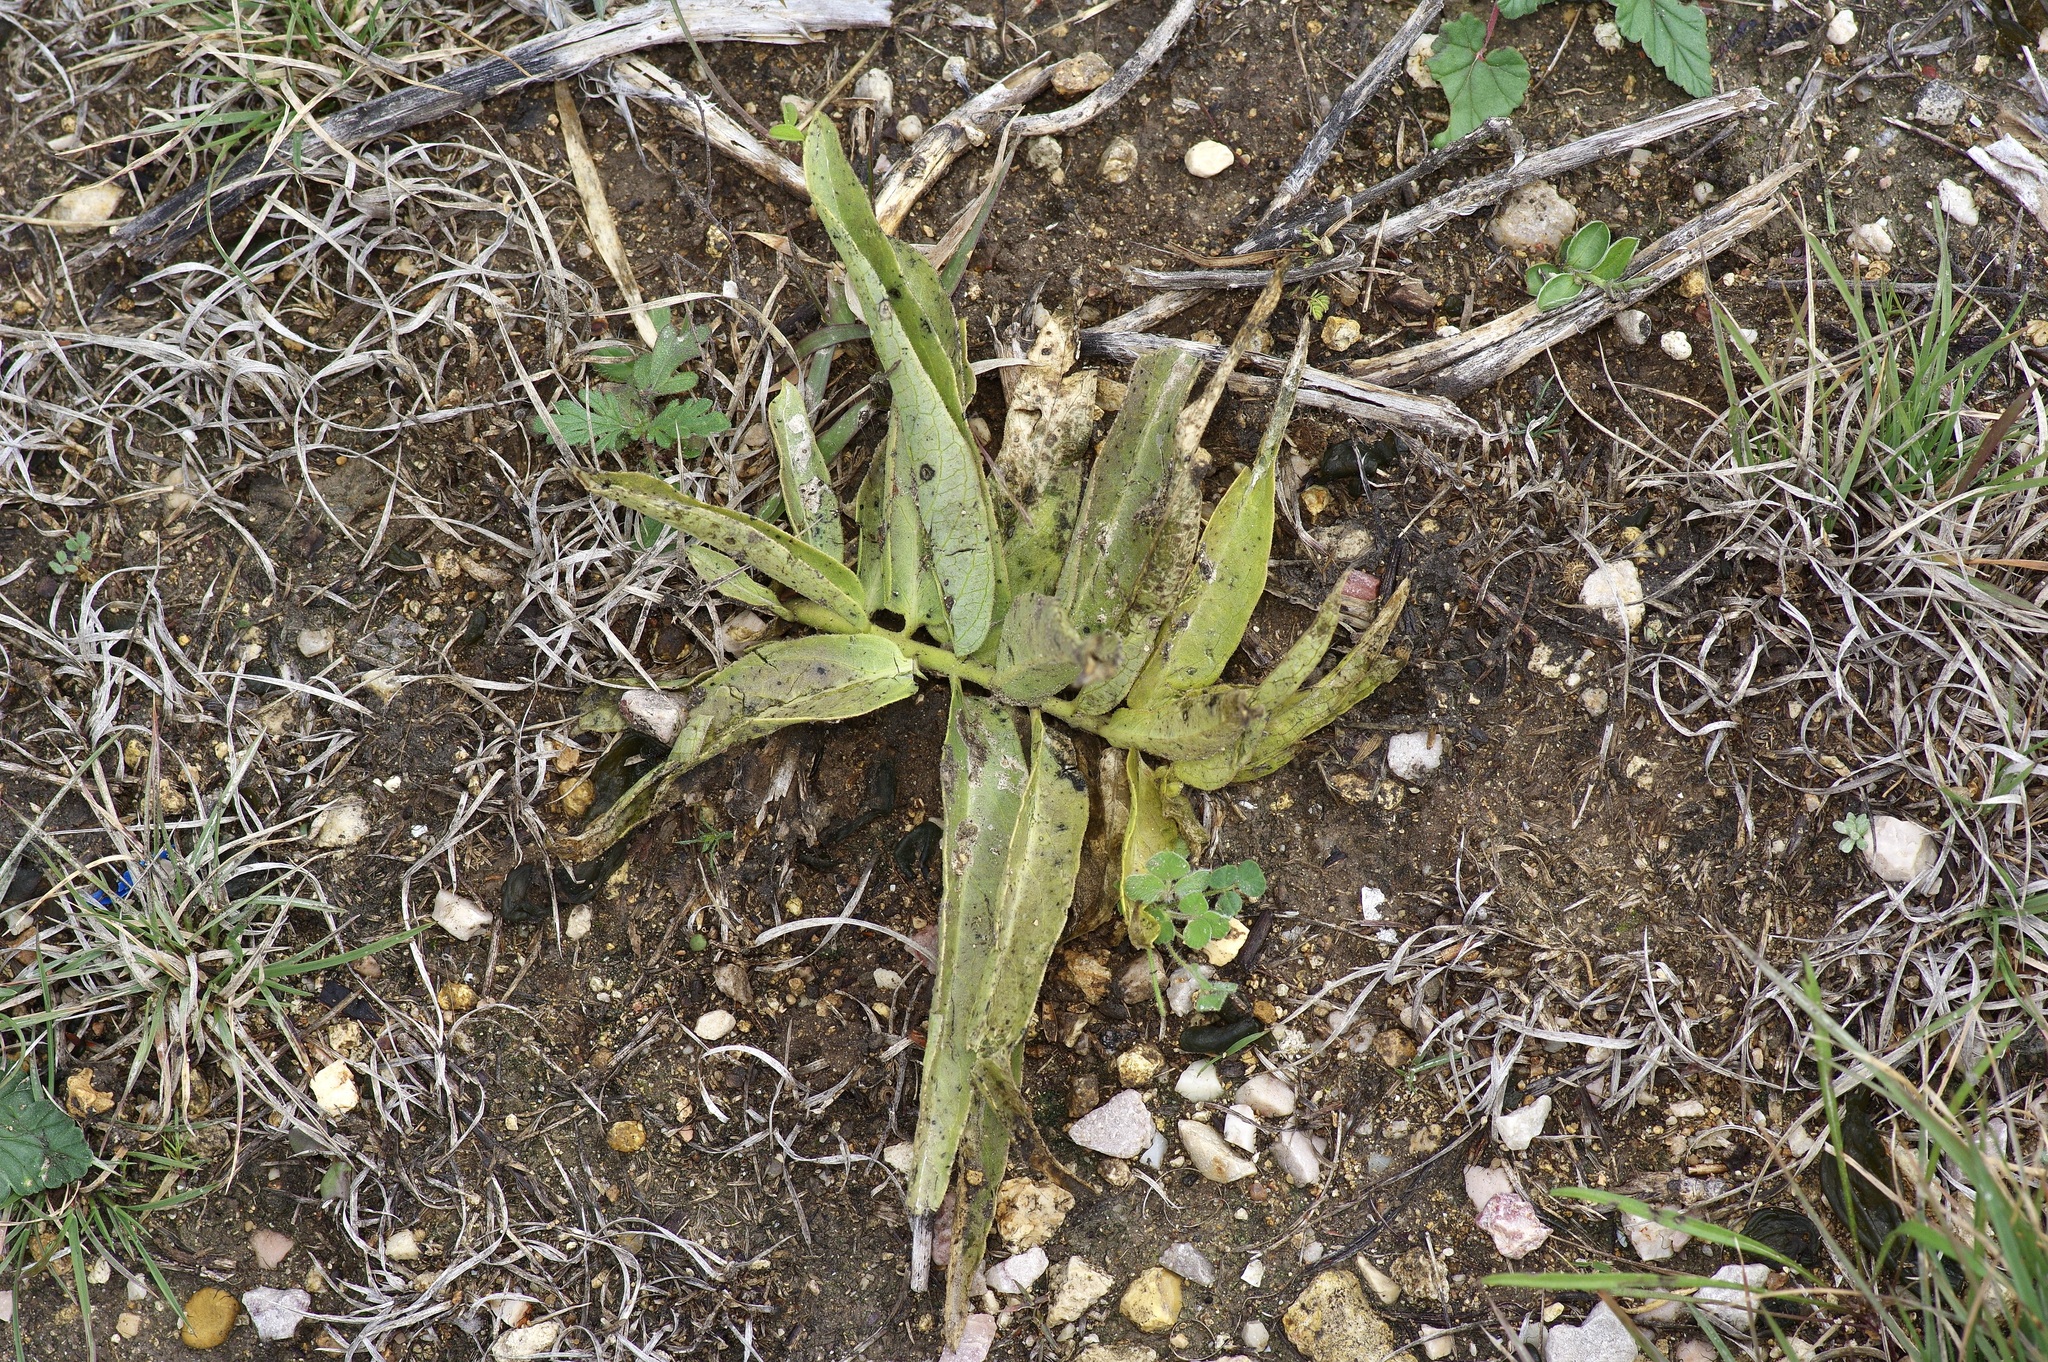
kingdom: Plantae
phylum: Tracheophyta
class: Magnoliopsida
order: Gentianales
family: Apocynaceae
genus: Asclepias
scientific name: Asclepias asperula
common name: Antelope horns
